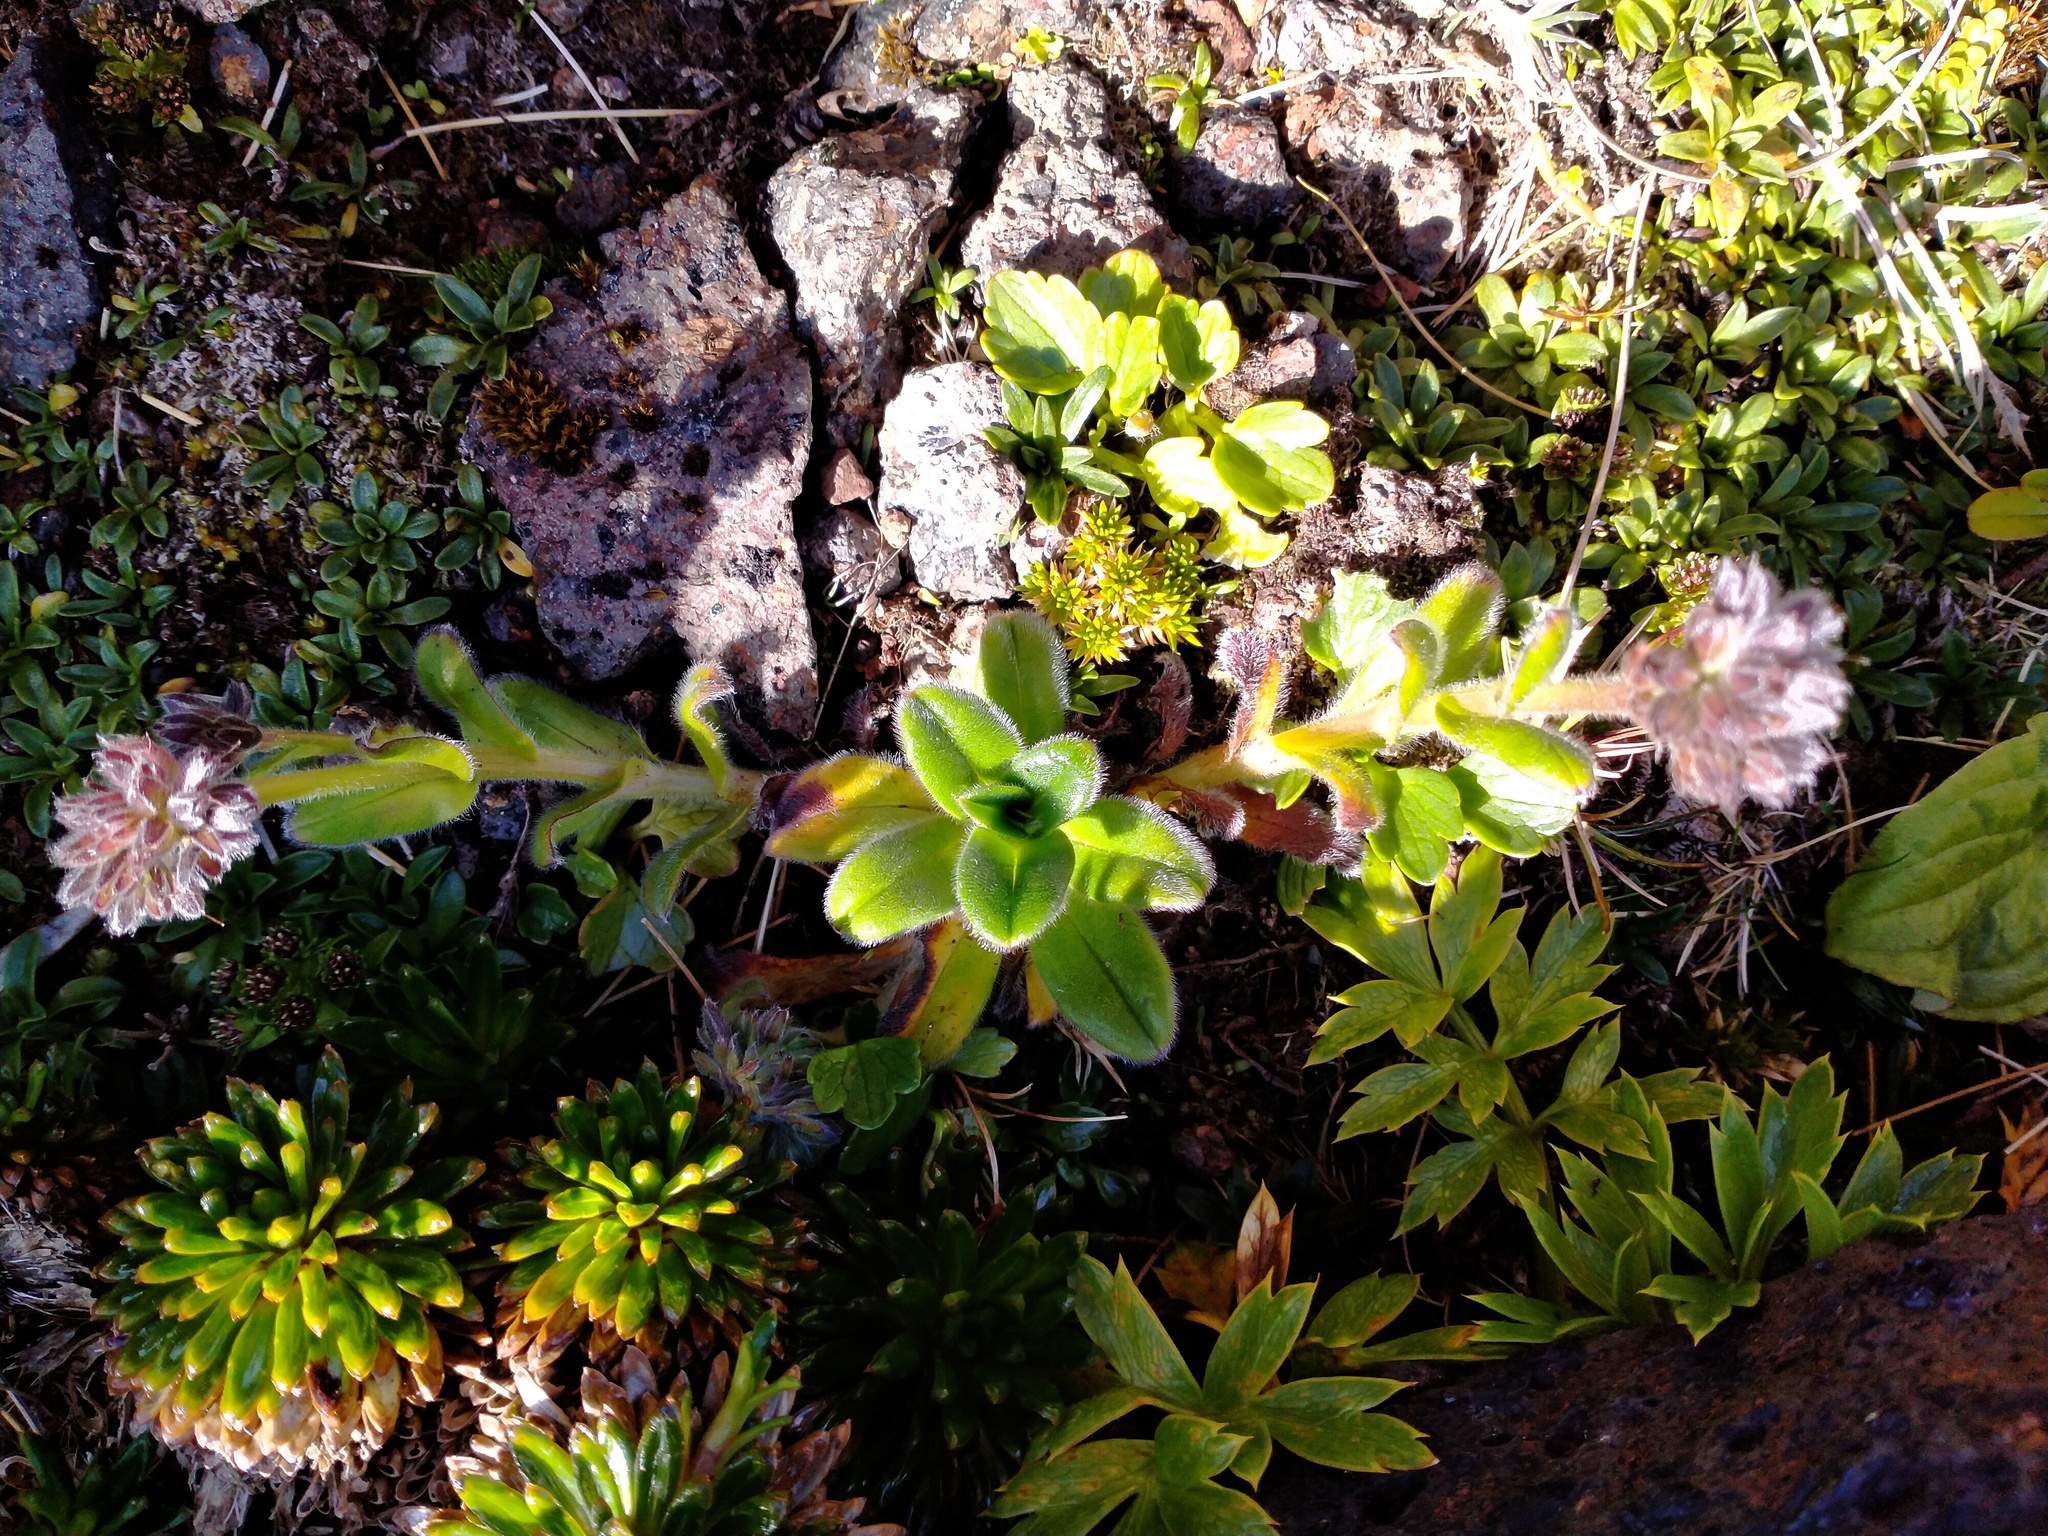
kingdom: Plantae
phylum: Tracheophyta
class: Magnoliopsida
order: Boraginales
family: Boraginaceae
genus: Myosotis
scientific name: Myosotis capitata
